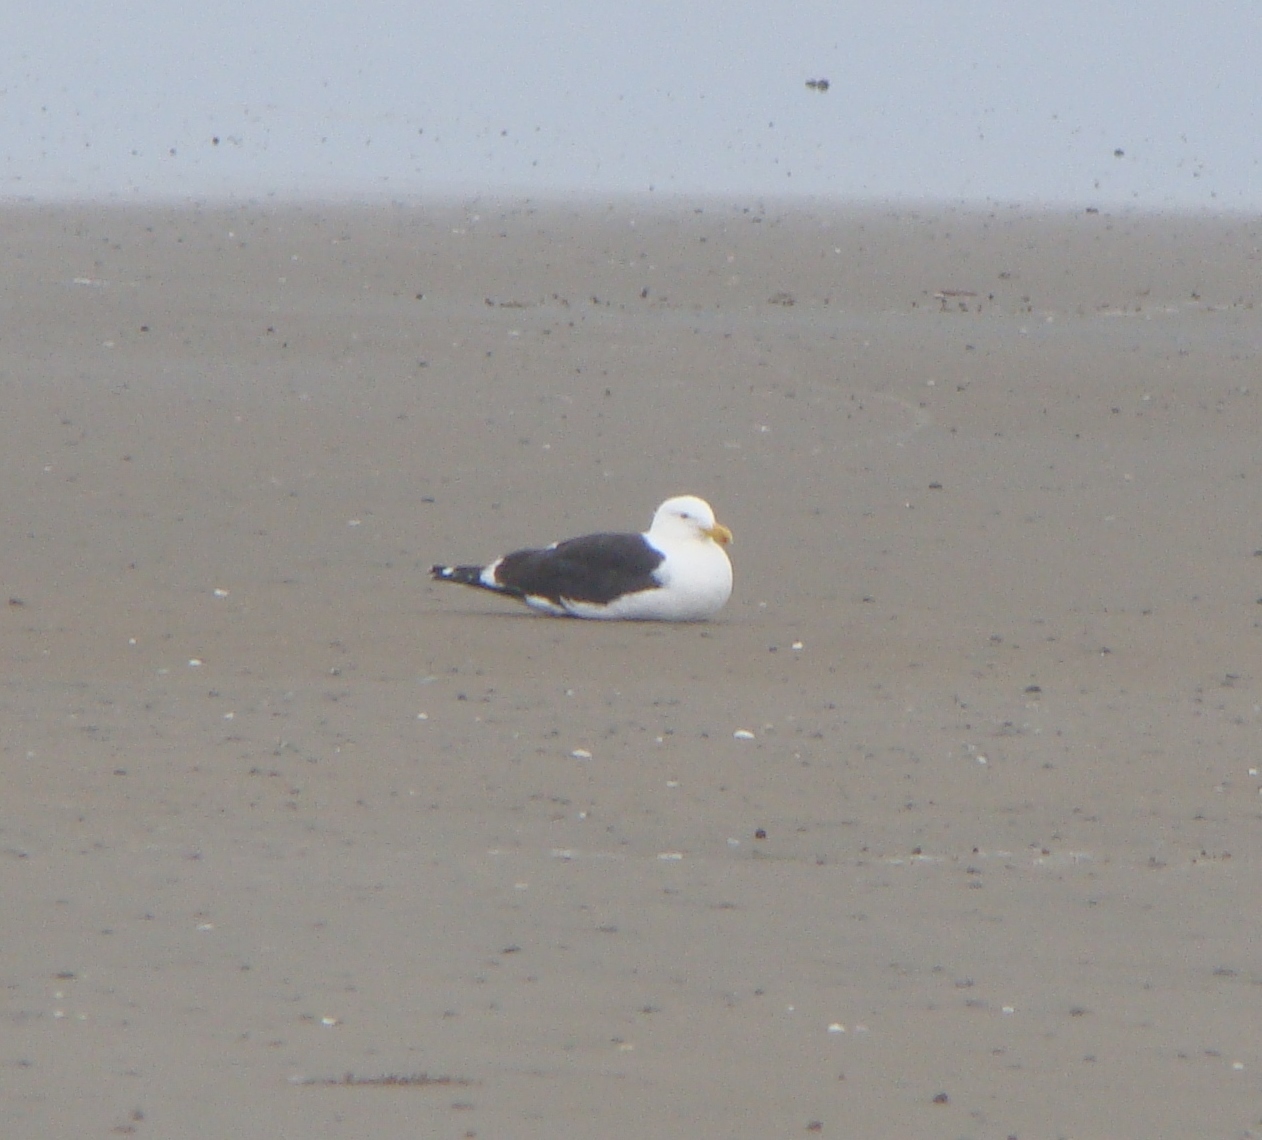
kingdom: Animalia
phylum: Chordata
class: Aves
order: Charadriiformes
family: Laridae
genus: Larus
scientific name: Larus dominicanus
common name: Kelp gull
